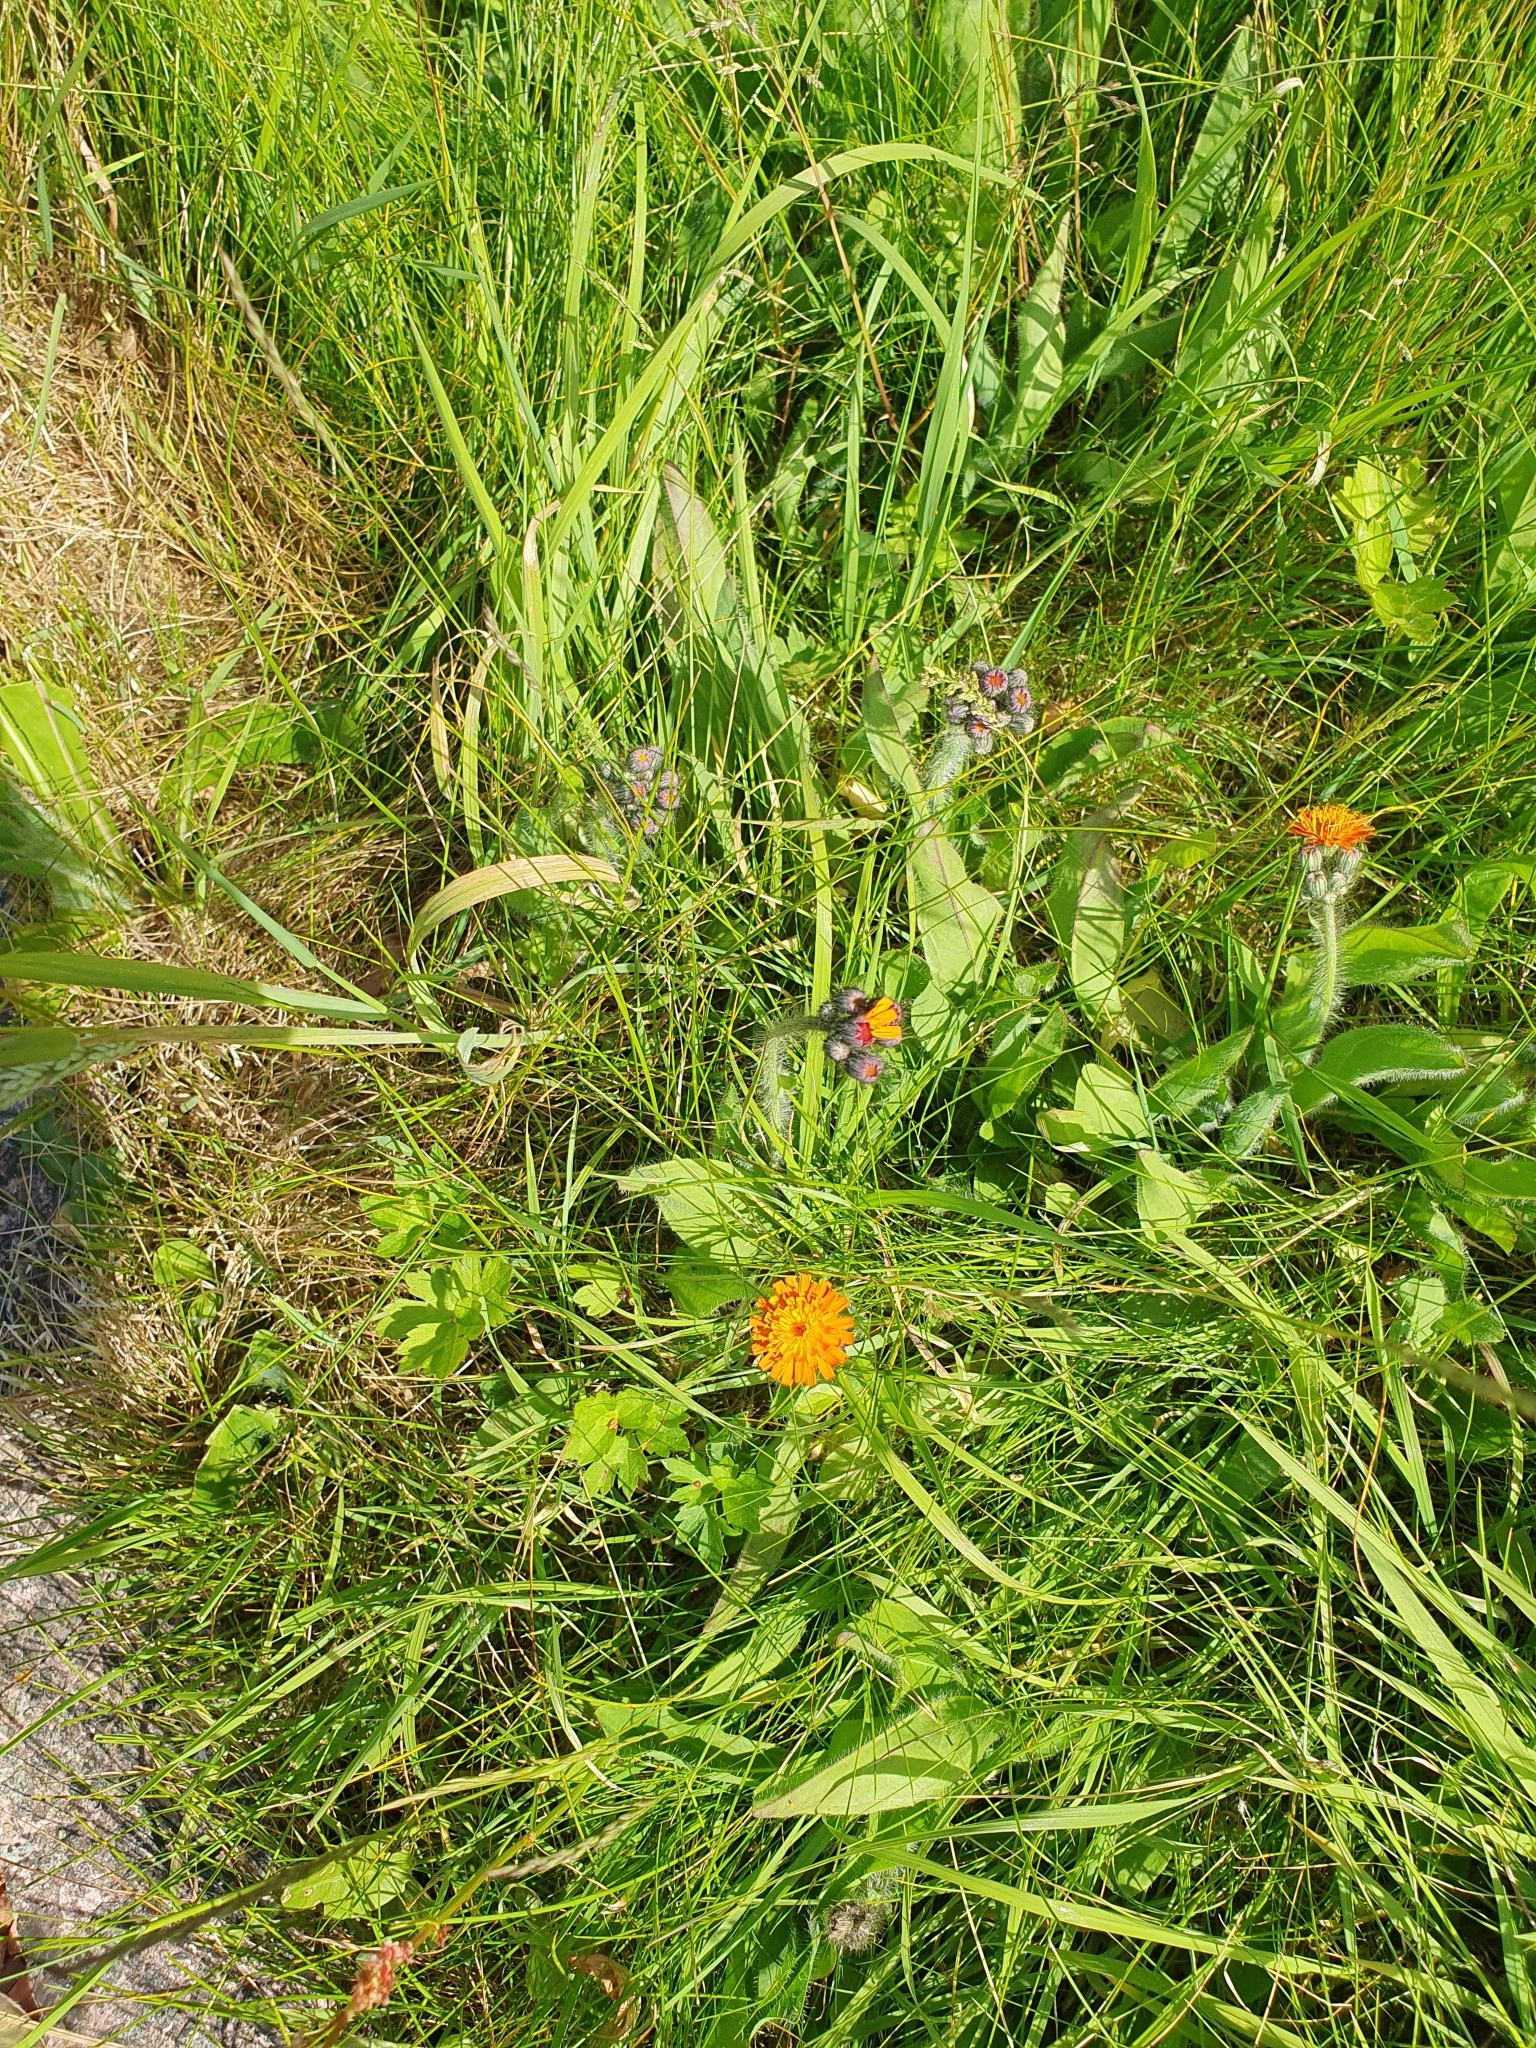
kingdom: Plantae
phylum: Tracheophyta
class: Magnoliopsida
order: Asterales
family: Asteraceae
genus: Pilosella
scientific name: Pilosella aurantiaca
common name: Fox-and-cubs
